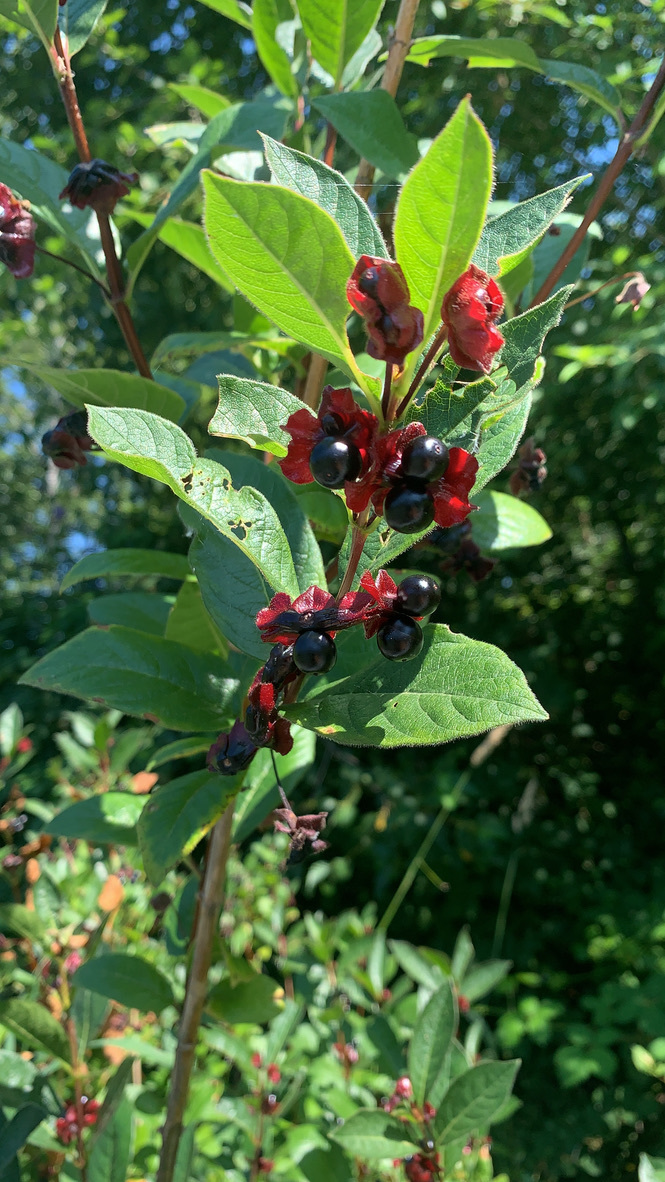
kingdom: Plantae
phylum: Tracheophyta
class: Magnoliopsida
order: Dipsacales
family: Caprifoliaceae
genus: Lonicera
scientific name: Lonicera involucrata
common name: Californian honeysuckle
